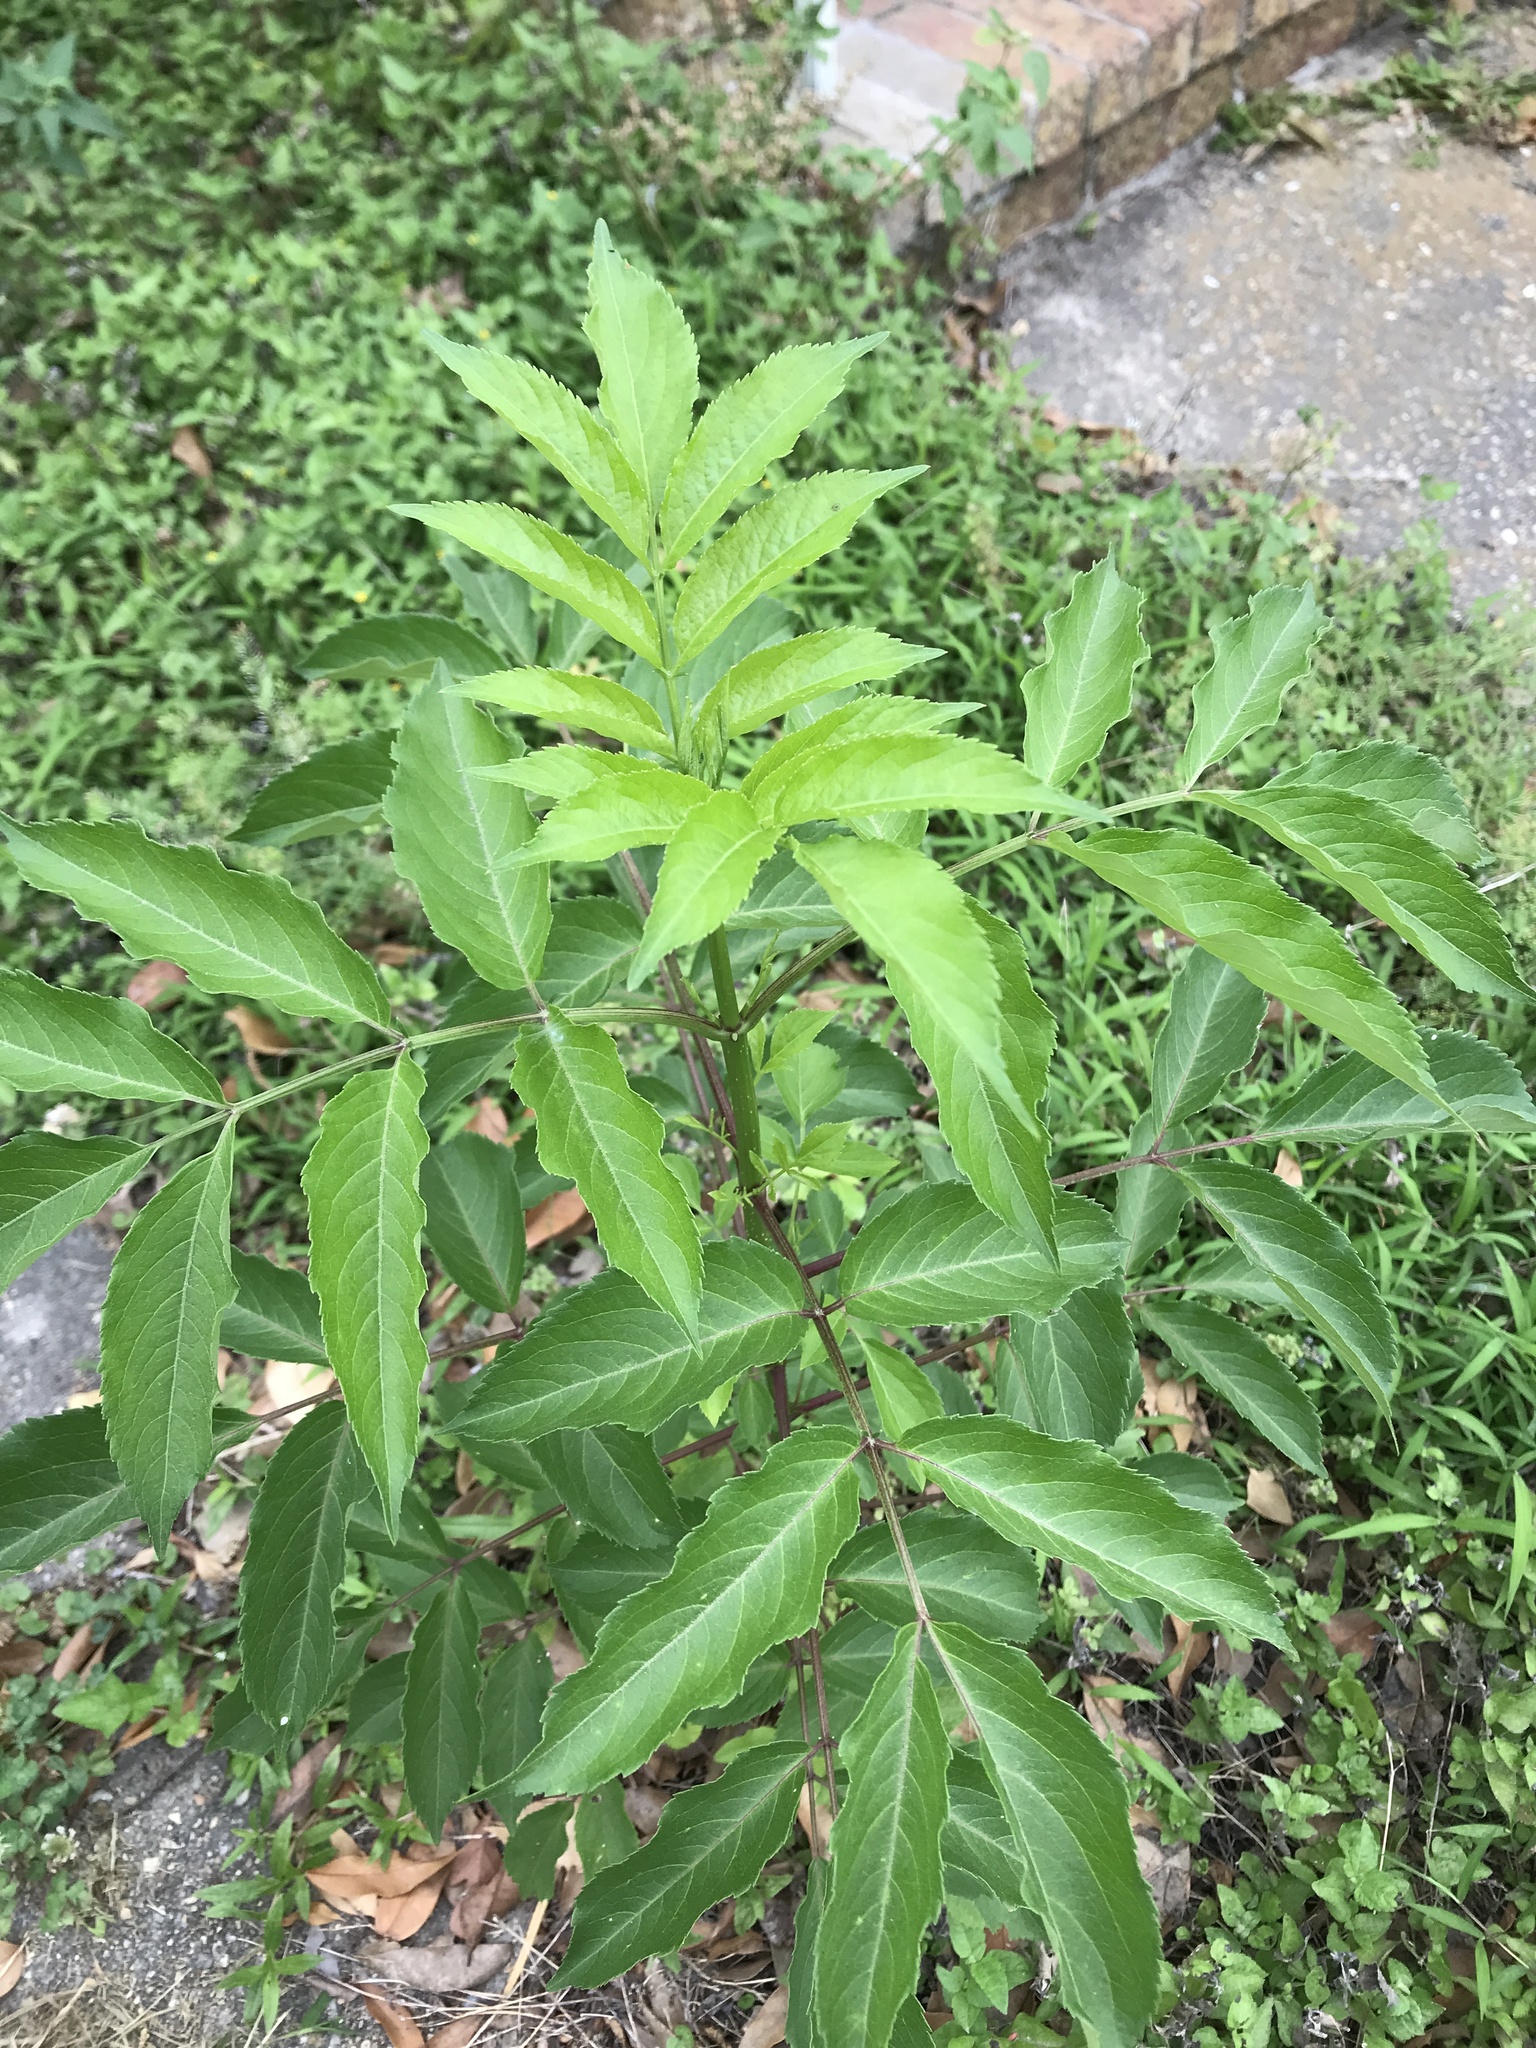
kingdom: Plantae
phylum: Tracheophyta
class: Magnoliopsida
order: Dipsacales
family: Viburnaceae
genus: Sambucus
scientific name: Sambucus canadensis
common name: American elder
